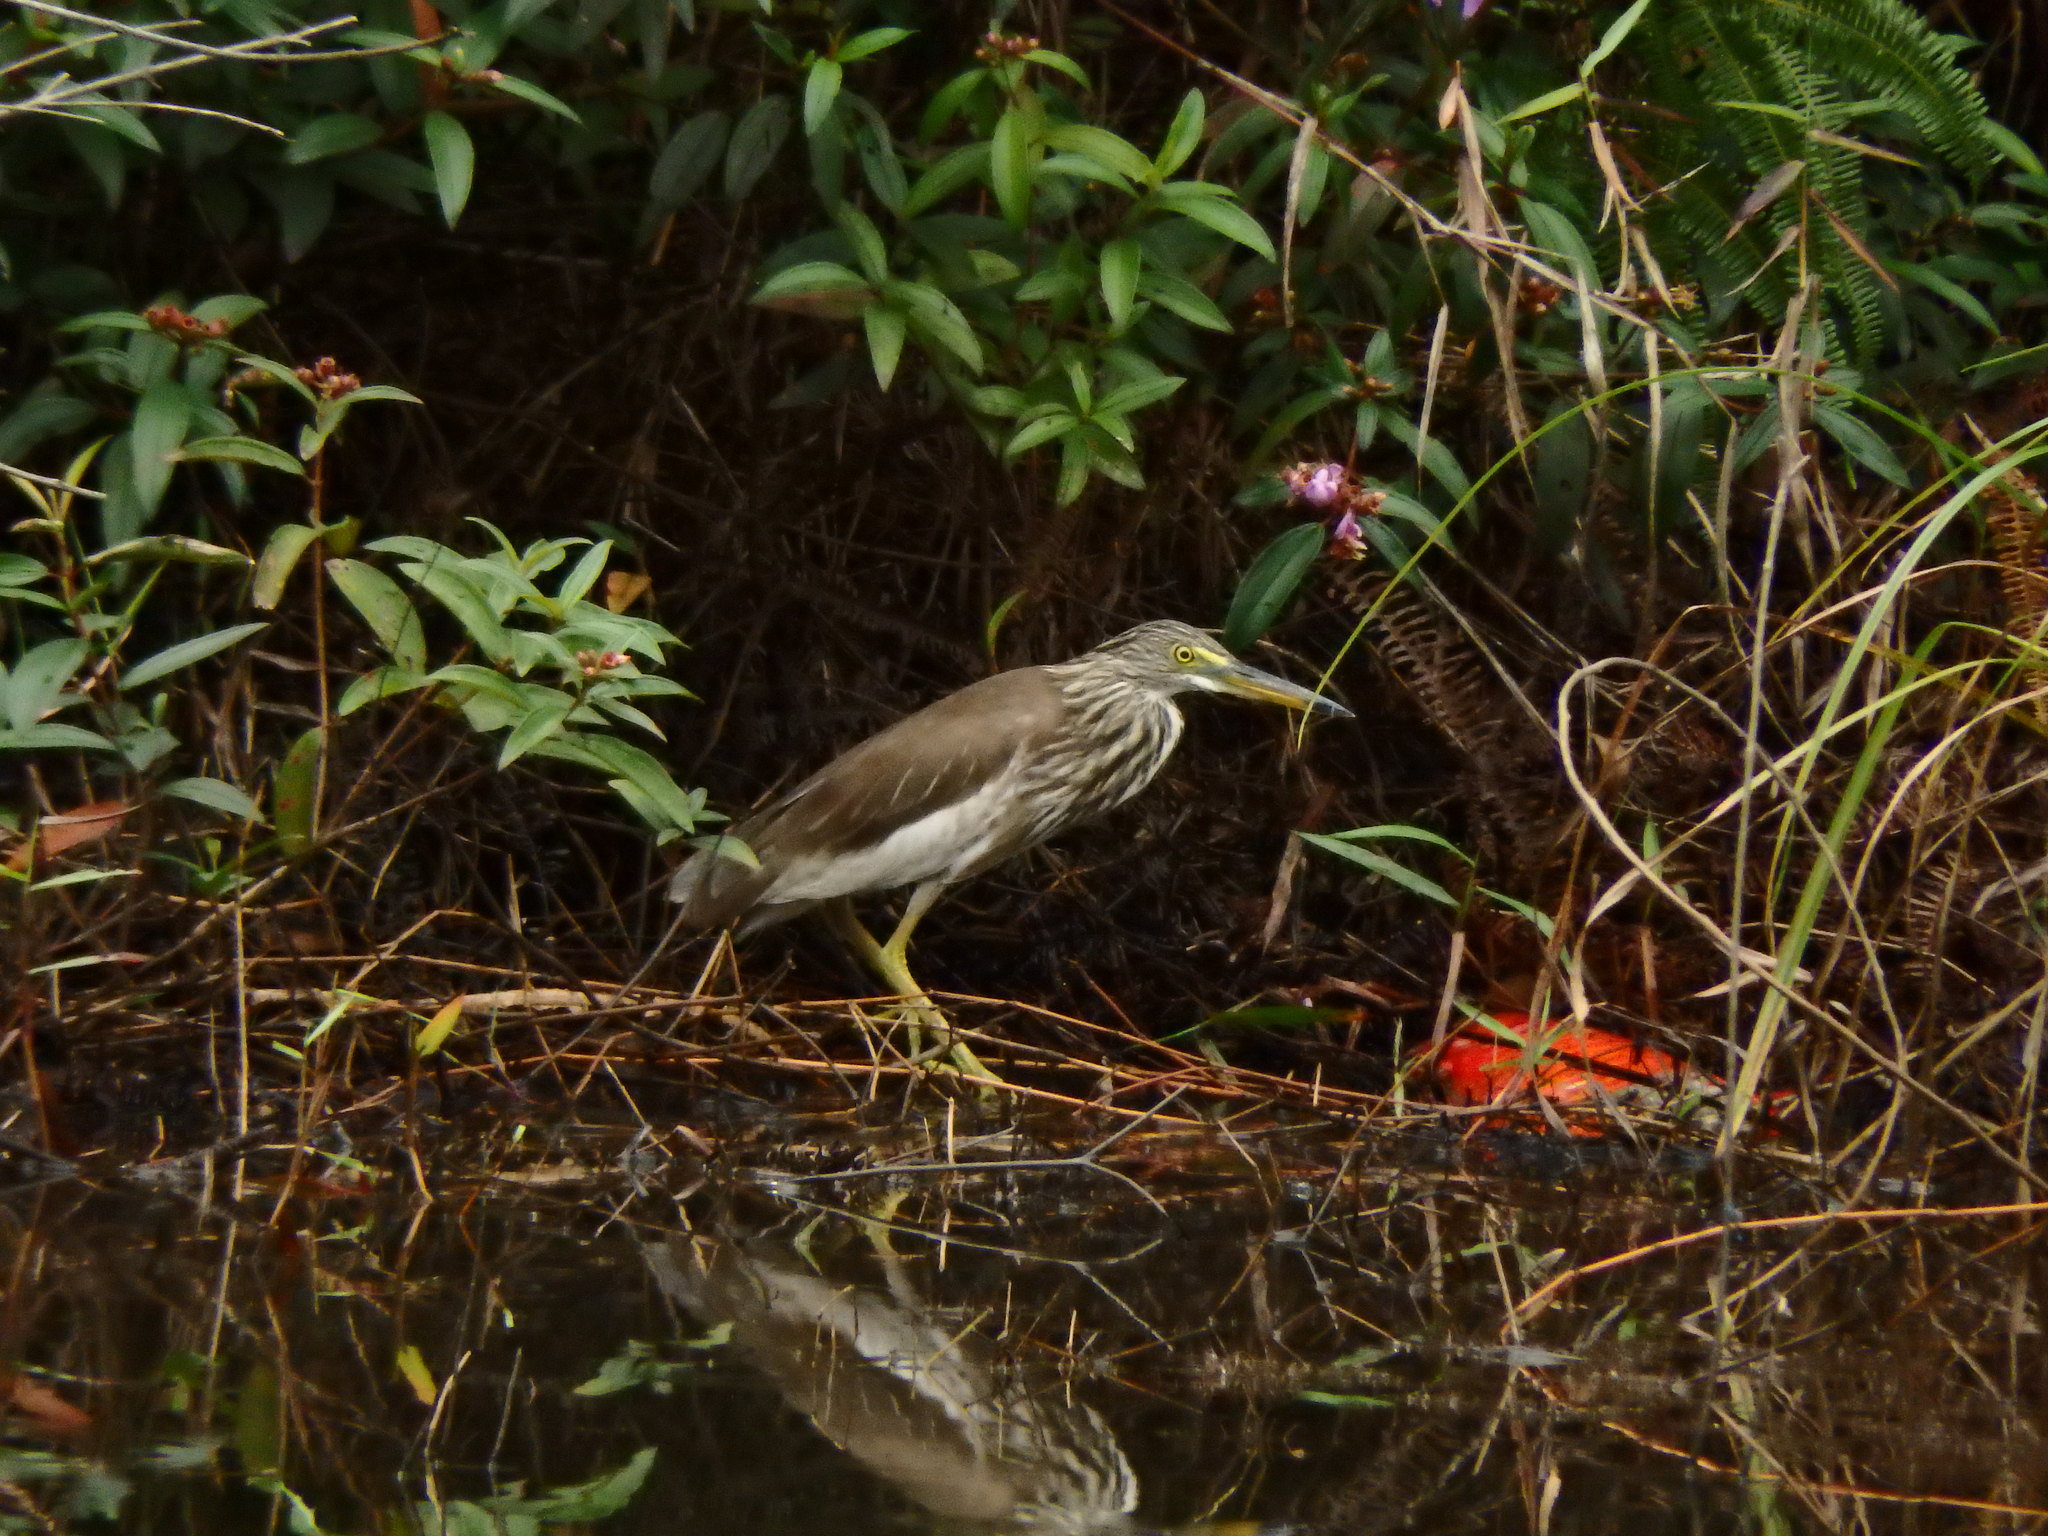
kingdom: Animalia
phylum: Chordata
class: Aves
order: Pelecaniformes
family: Ardeidae
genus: Ardeola
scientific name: Ardeola
